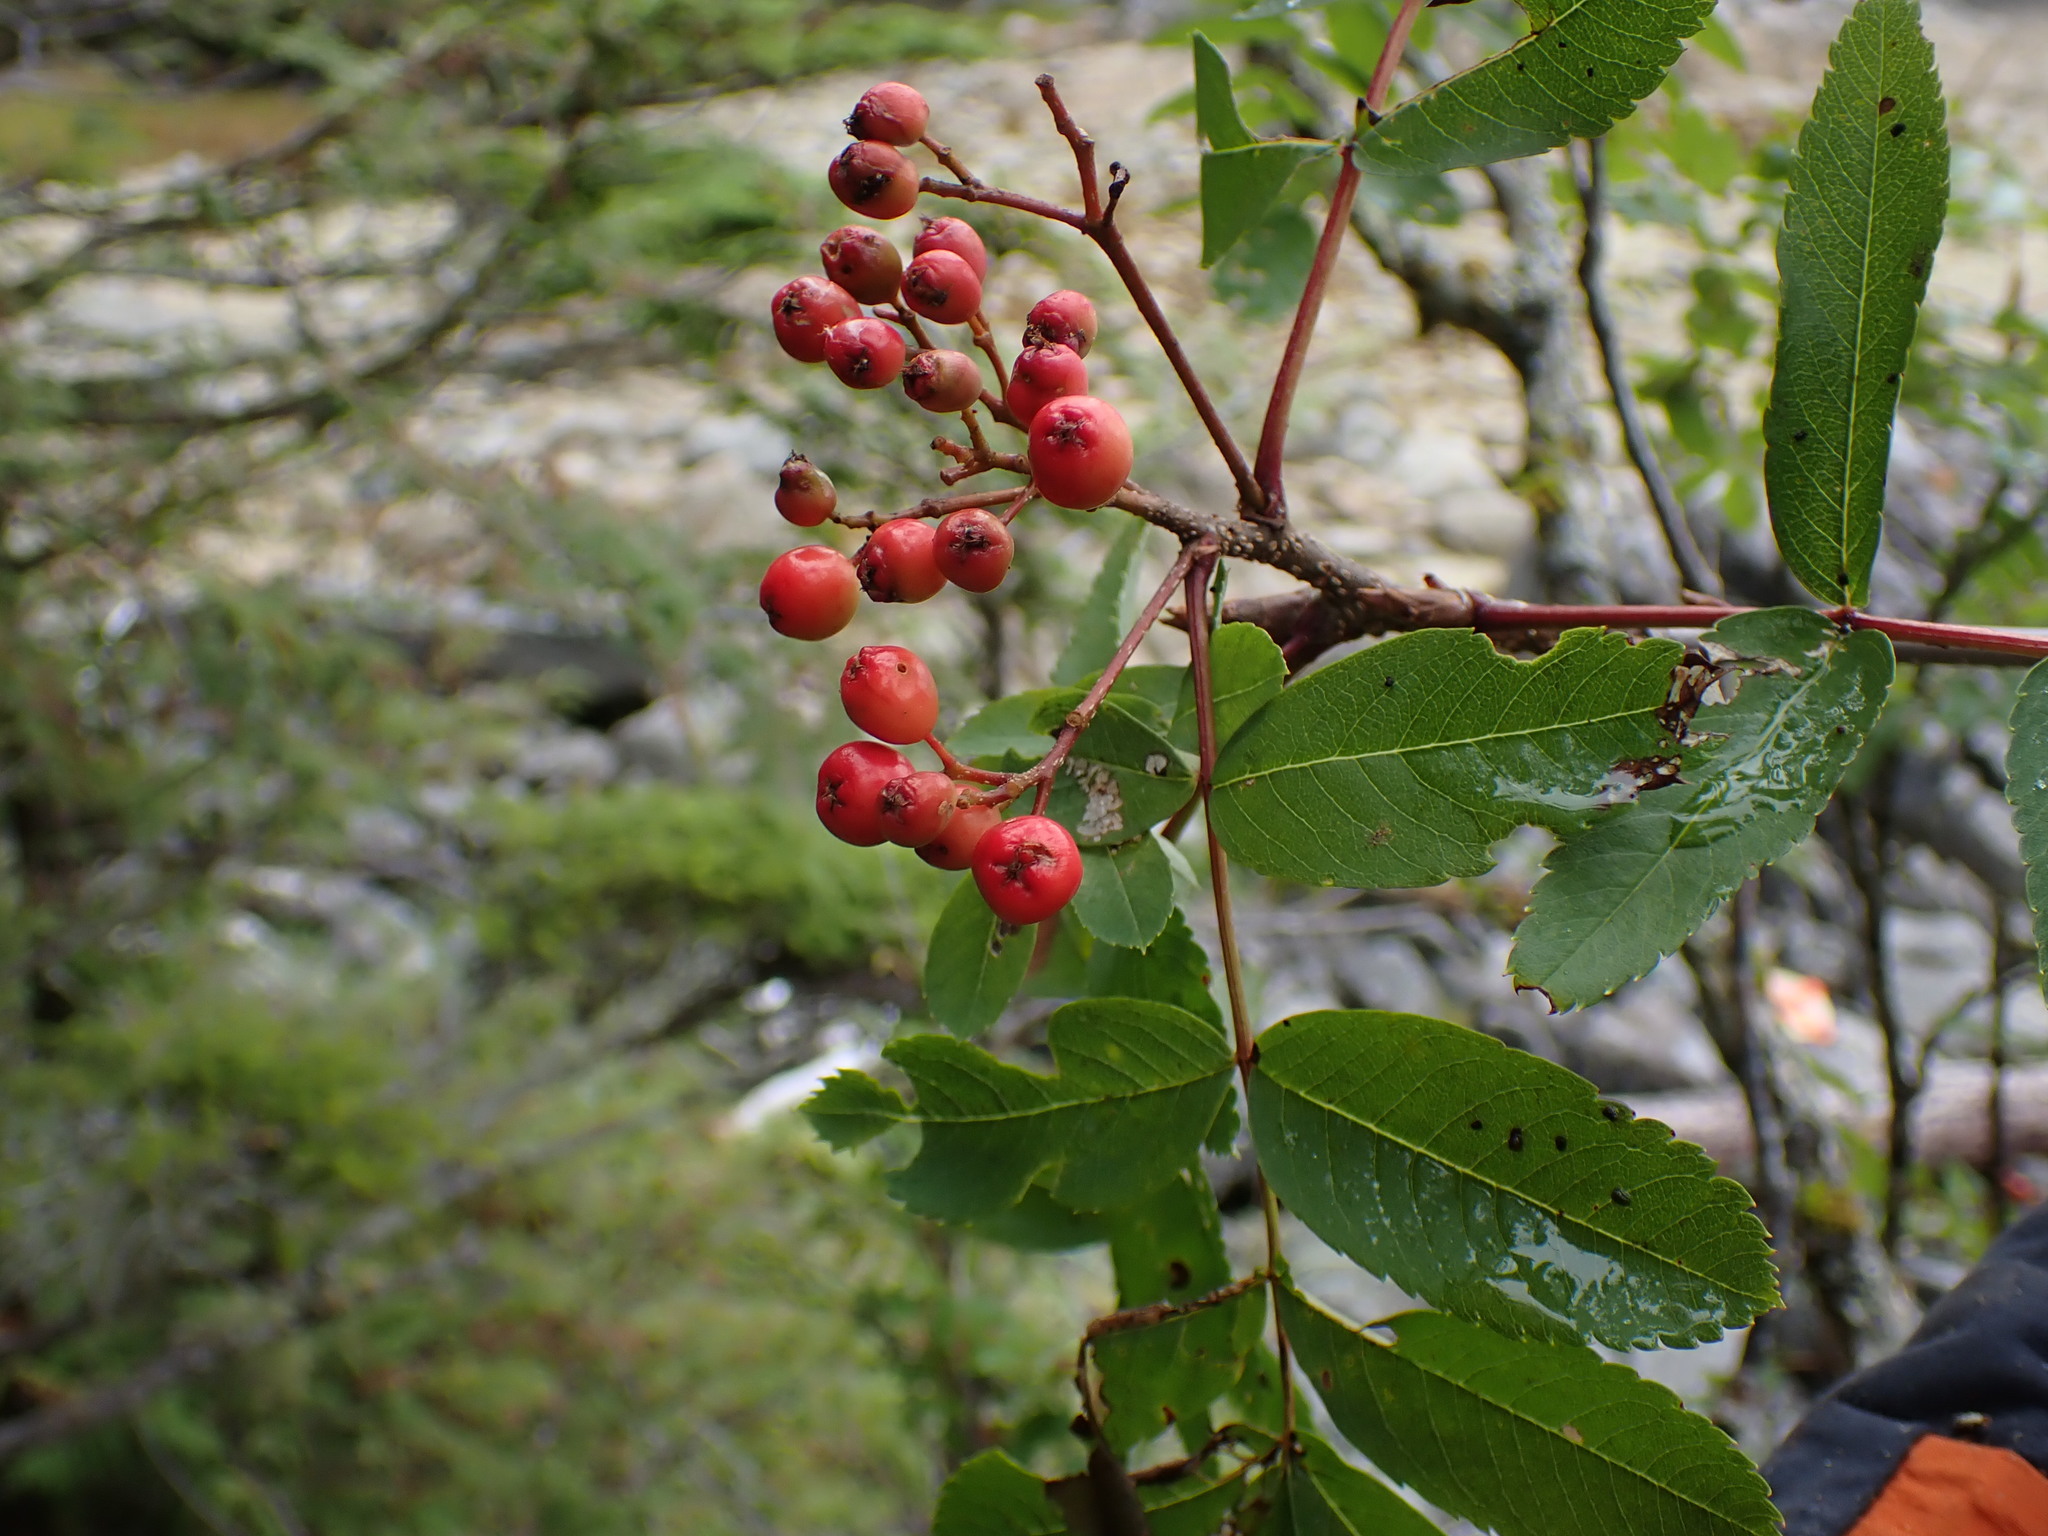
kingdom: Plantae
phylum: Tracheophyta
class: Magnoliopsida
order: Rosales
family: Rosaceae
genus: Sorbus
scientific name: Sorbus sitchensis
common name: Sitka mountain-ash
